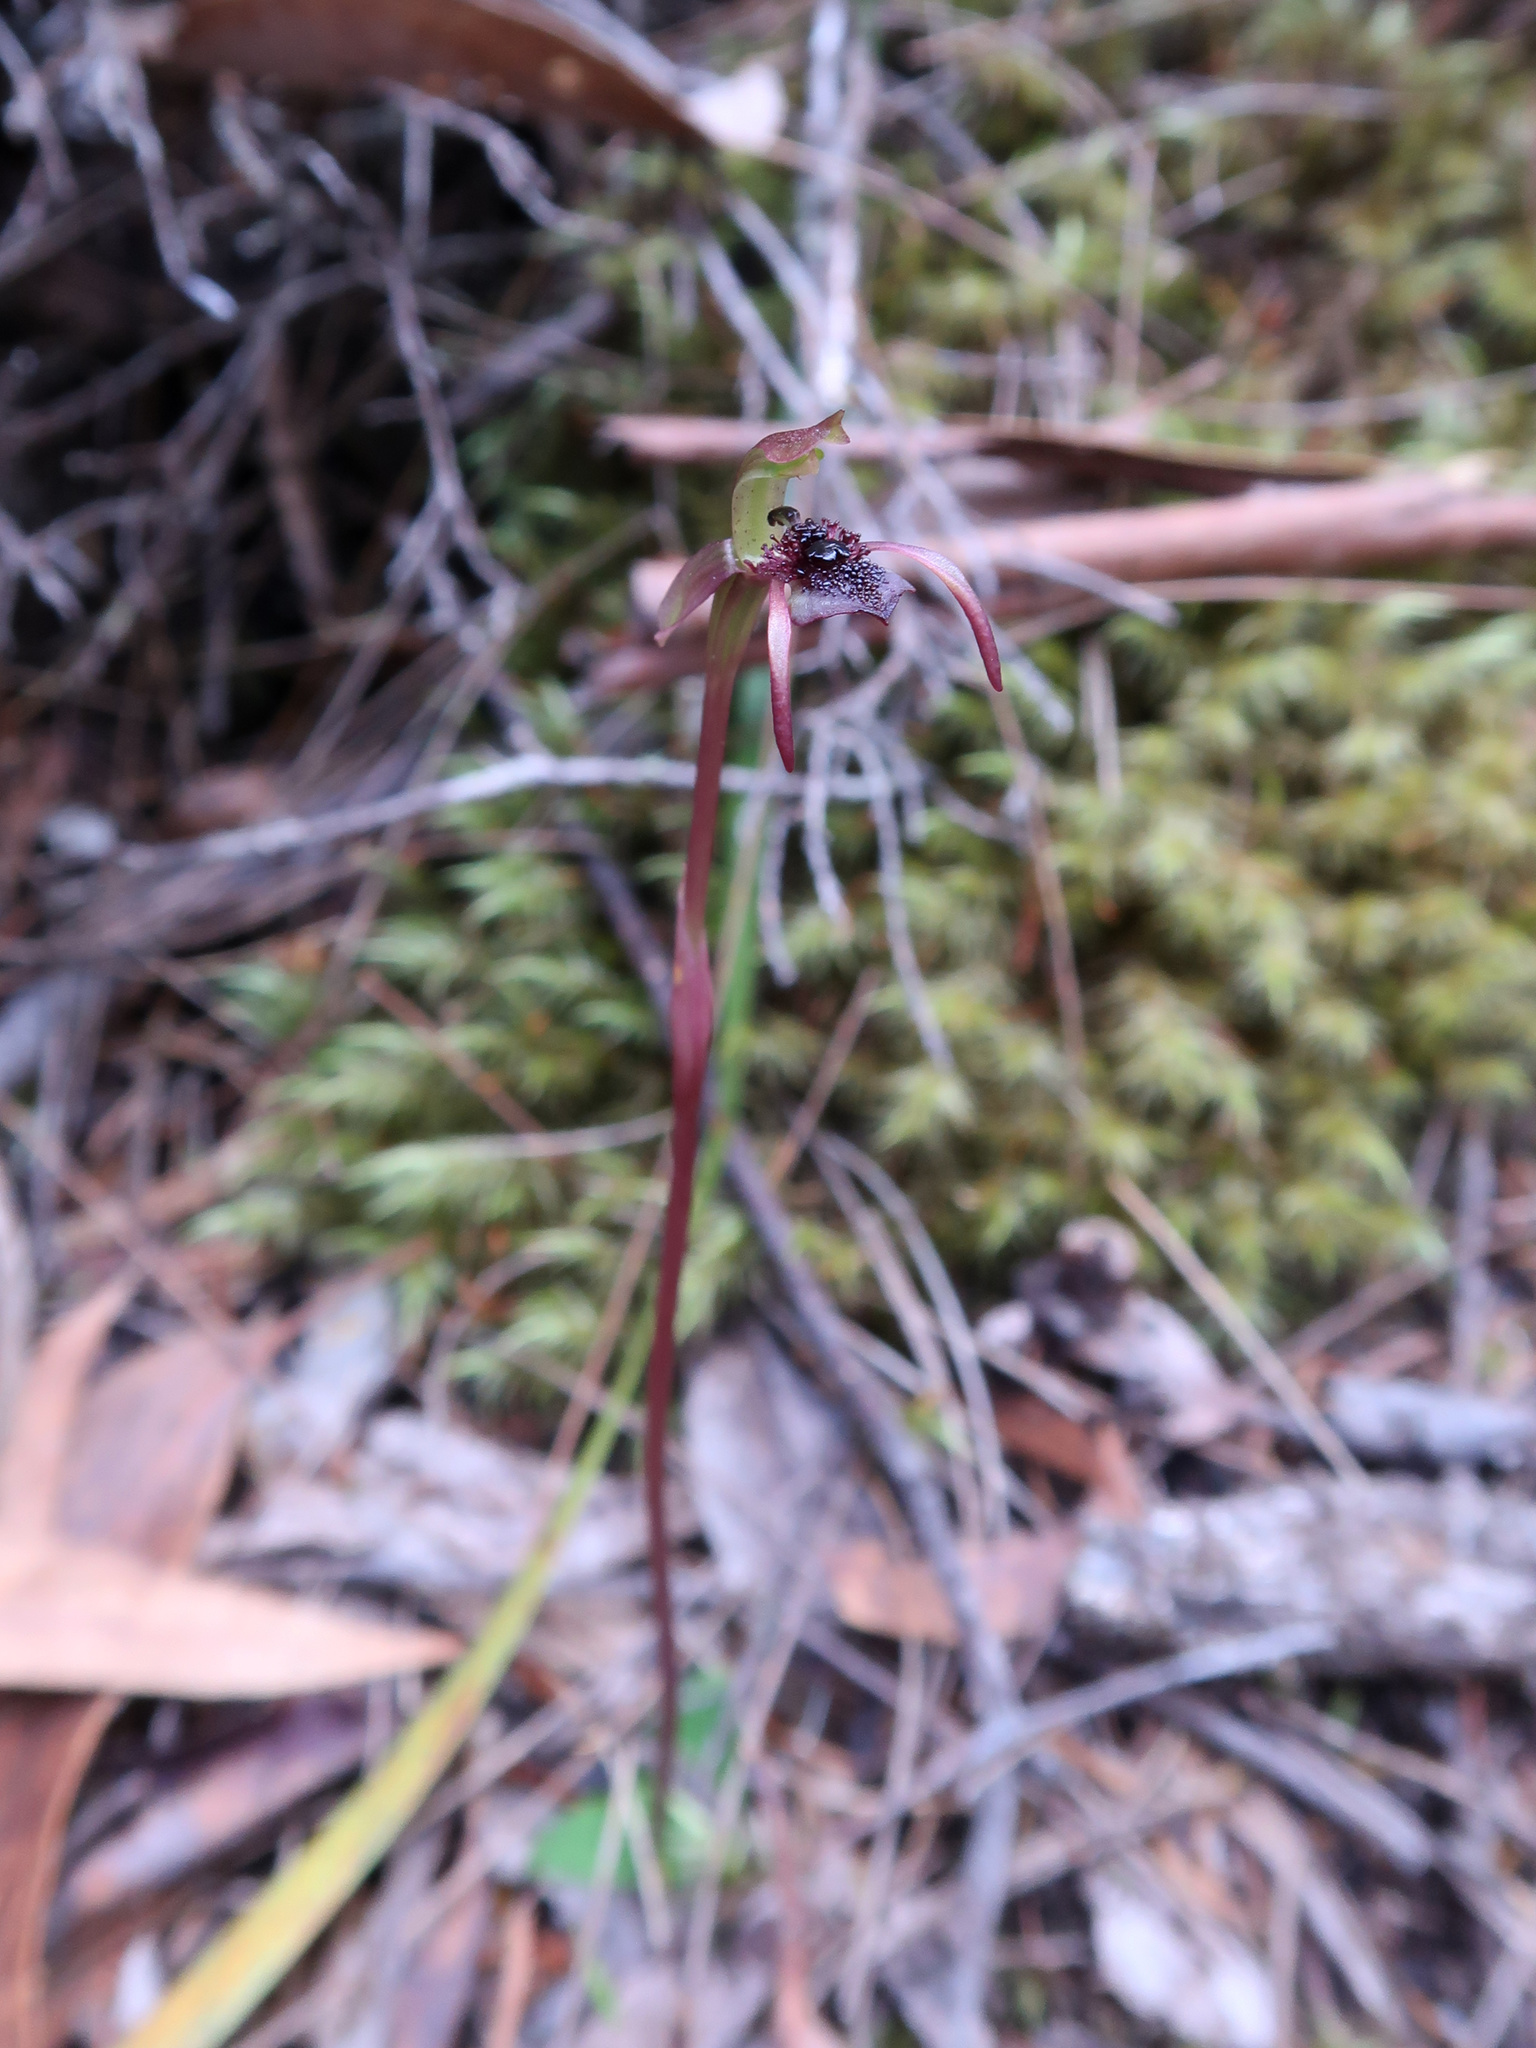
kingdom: Plantae
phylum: Tracheophyta
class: Liliopsida
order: Asparagales
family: Orchidaceae
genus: Chiloglottis
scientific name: Chiloglottis reflexa
